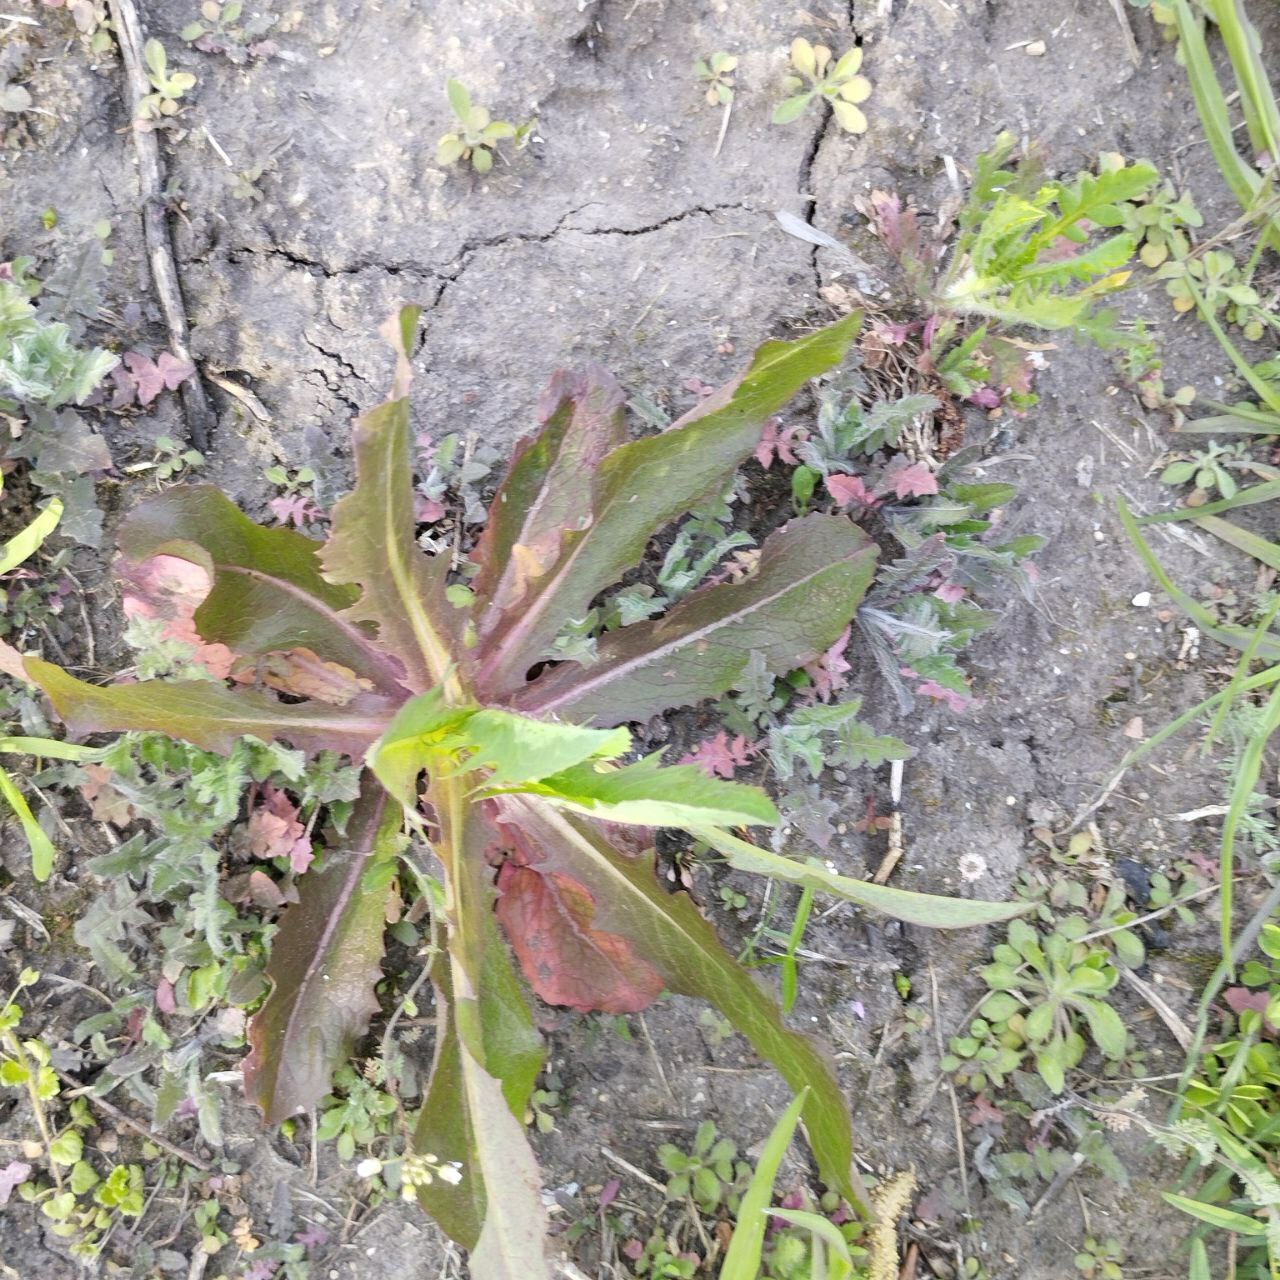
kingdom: Plantae
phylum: Tracheophyta
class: Magnoliopsida
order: Asterales
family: Asteraceae
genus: Lactuca
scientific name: Lactuca serriola
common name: Prickly lettuce
